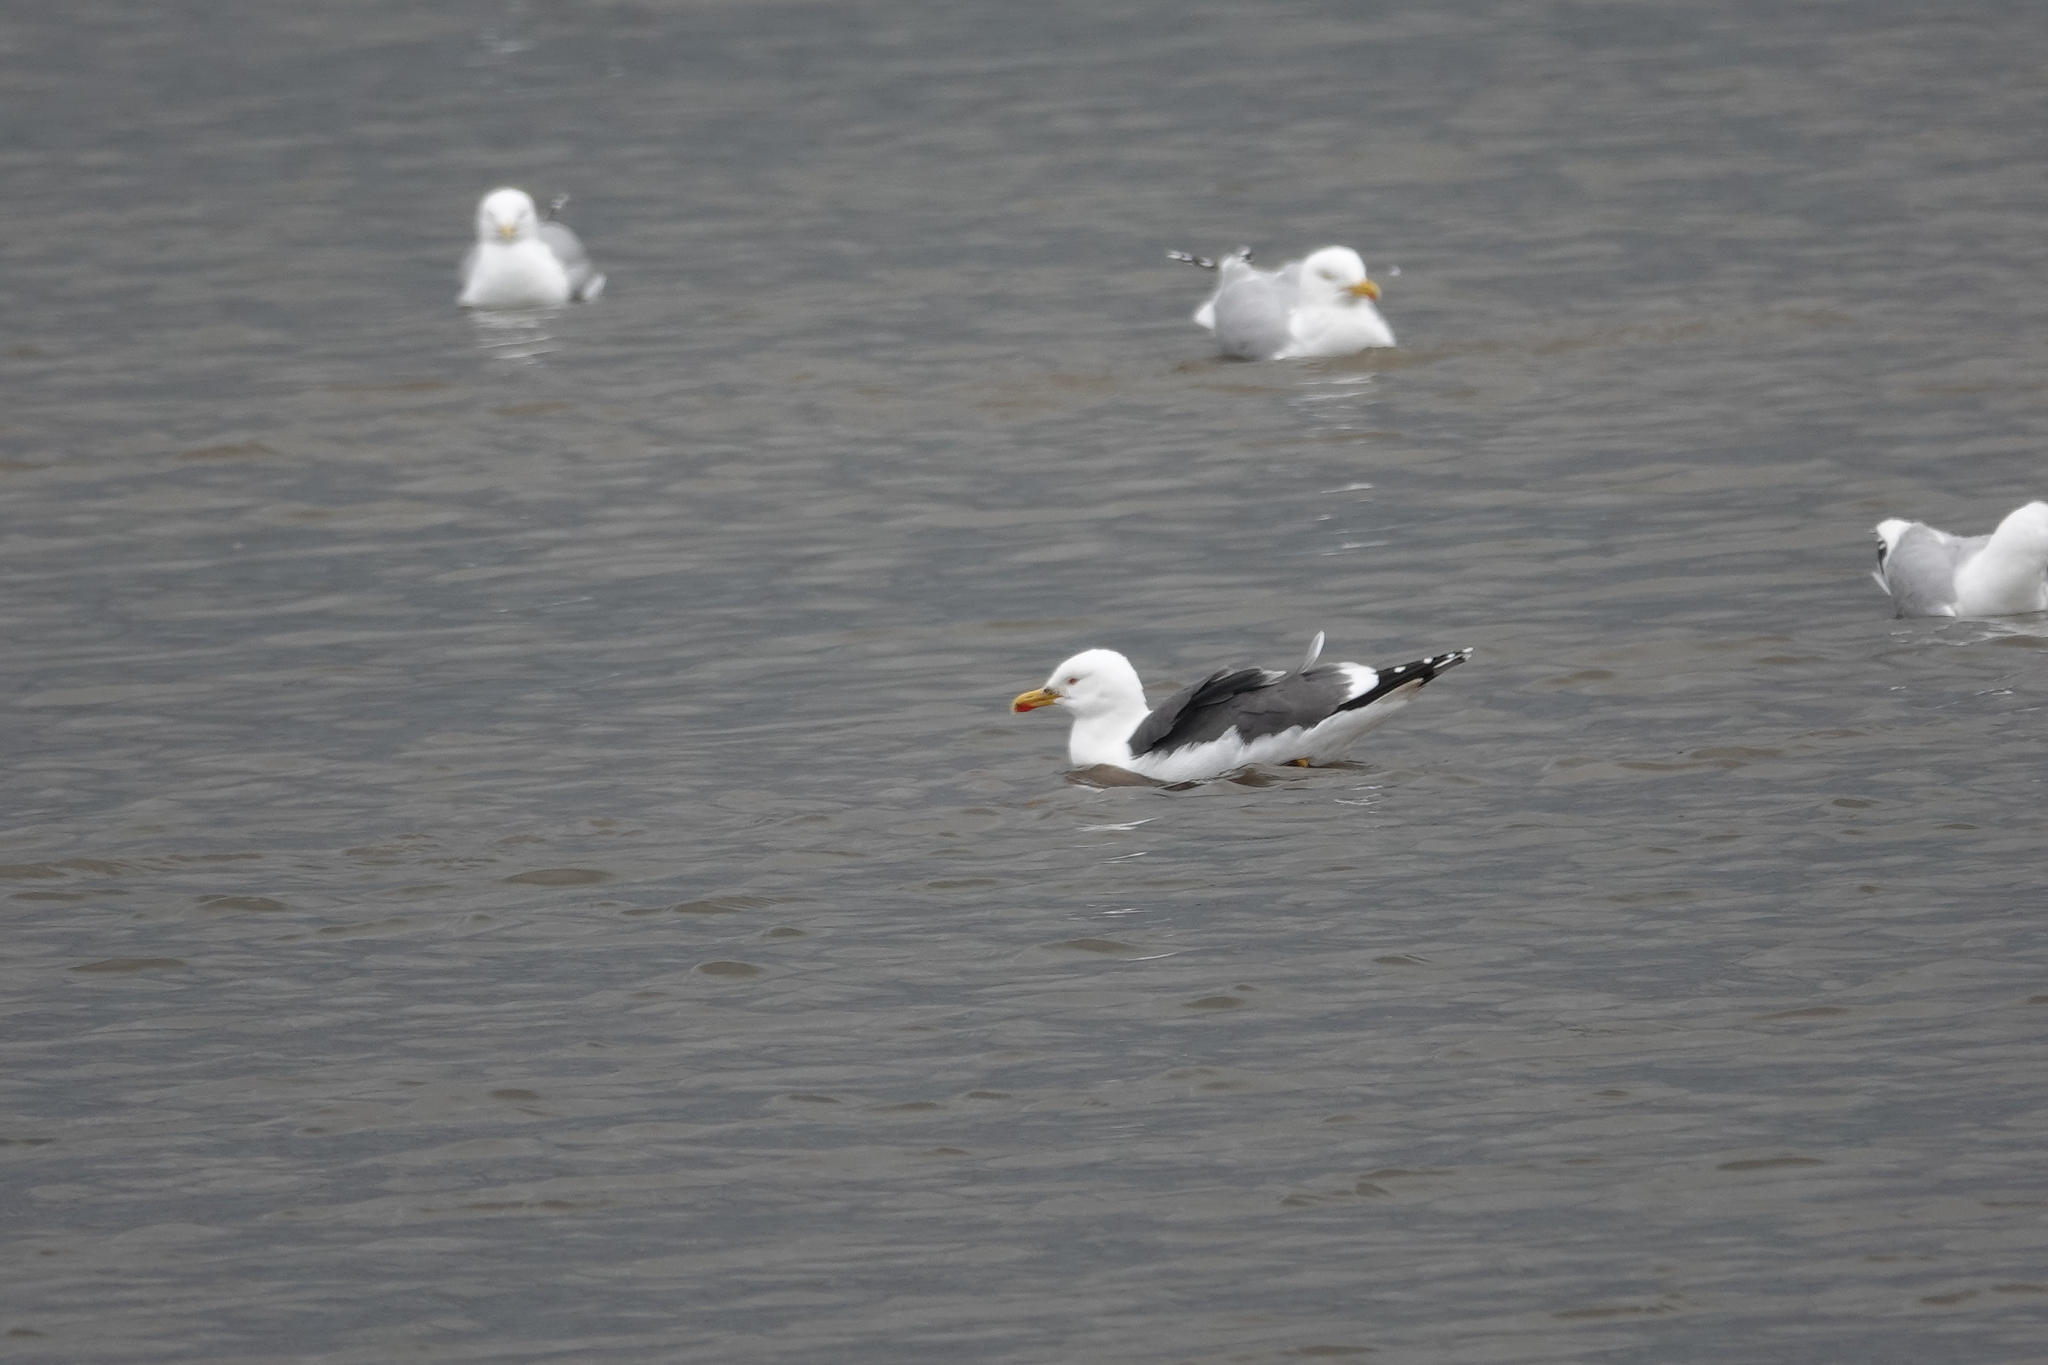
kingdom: Animalia
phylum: Chordata
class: Aves
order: Charadriiformes
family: Laridae
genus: Larus
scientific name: Larus fuscus
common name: Lesser black-backed gull
